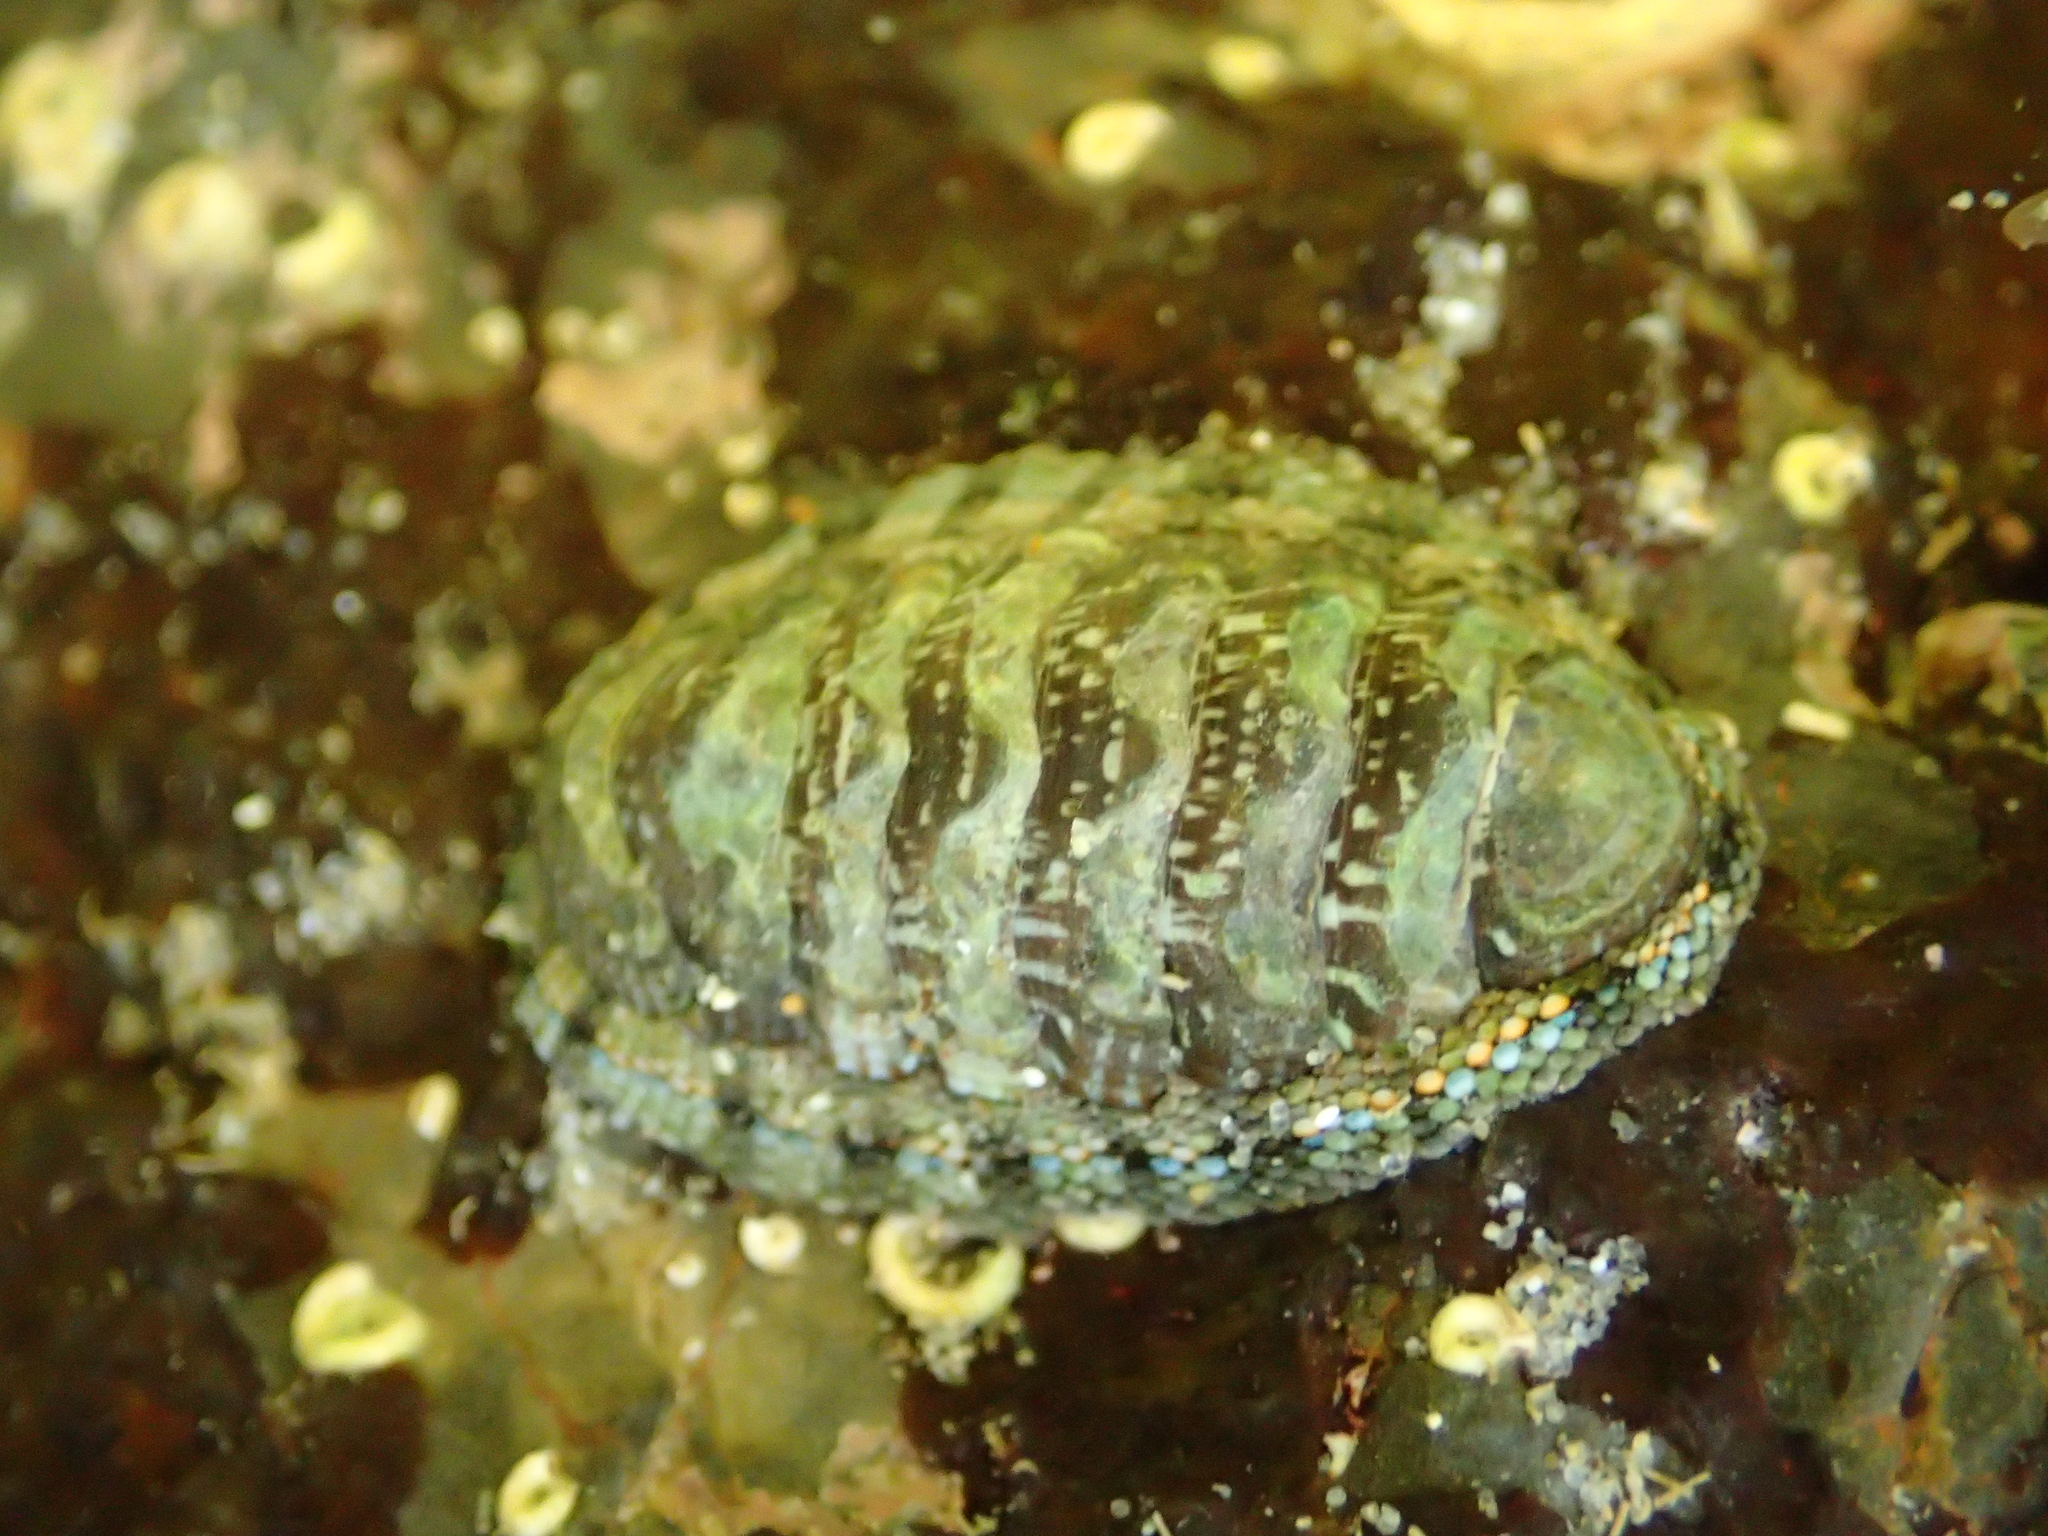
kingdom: Animalia
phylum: Mollusca
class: Polyplacophora
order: Chitonida
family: Chitonidae
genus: Sypharochiton
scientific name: Sypharochiton sinclairi
